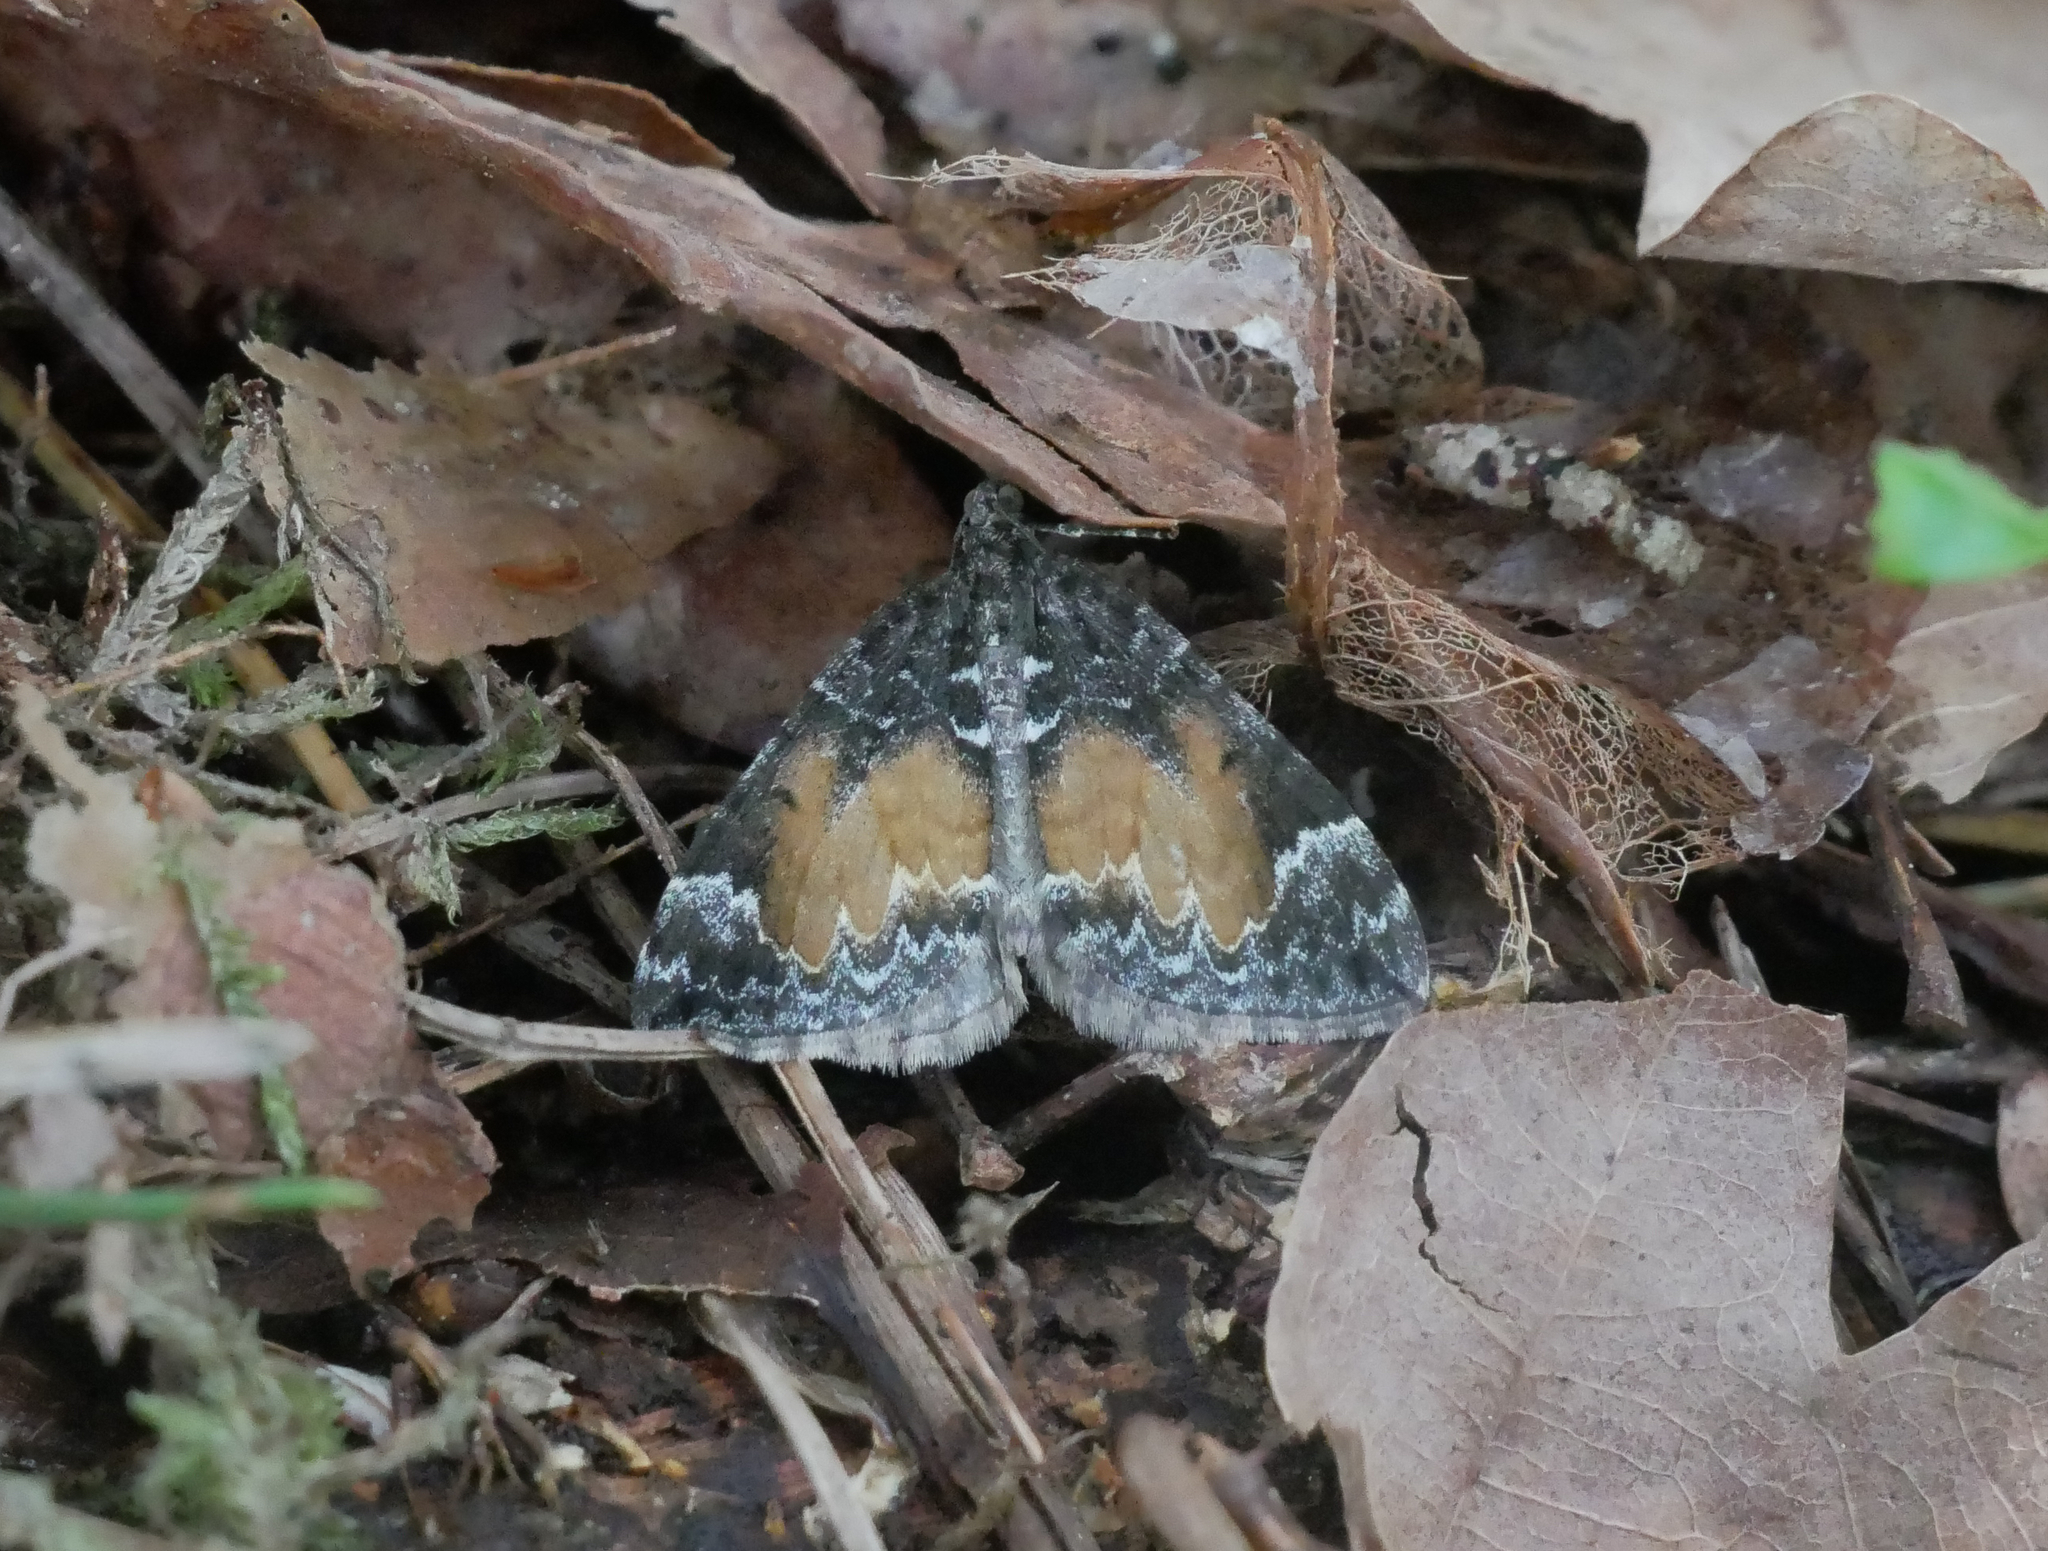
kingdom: Animalia
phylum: Arthropoda
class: Insecta
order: Lepidoptera
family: Geometridae
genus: Dysstroma
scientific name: Dysstroma truncata
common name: Common marbled carpet
